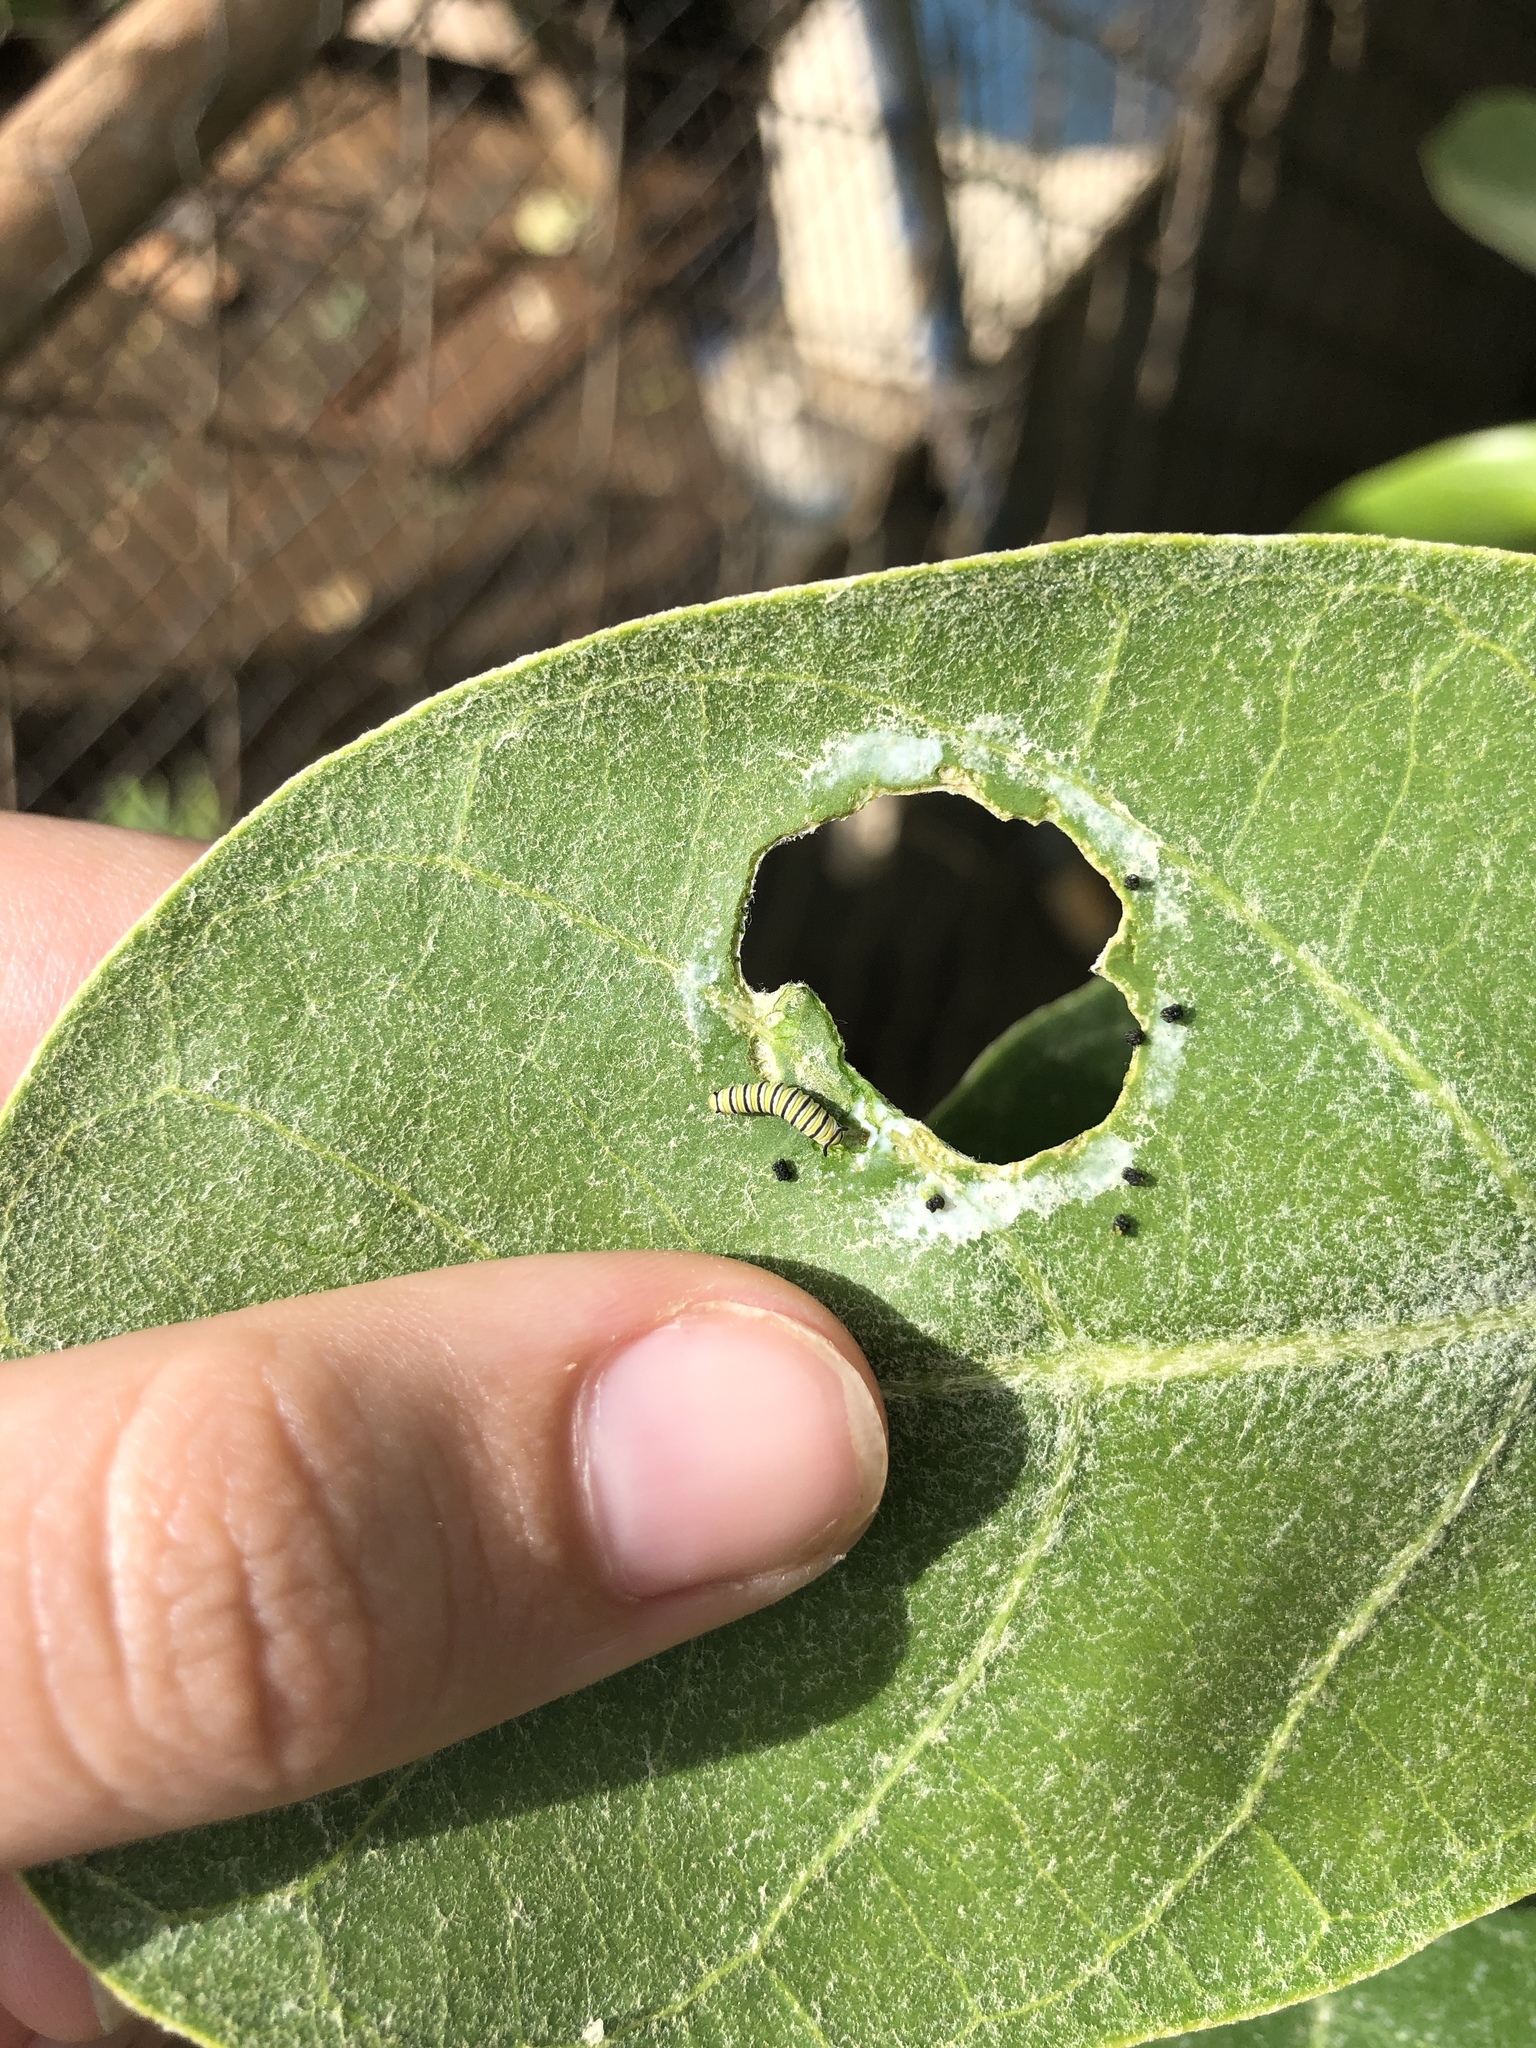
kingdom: Animalia
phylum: Arthropoda
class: Insecta
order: Lepidoptera
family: Nymphalidae
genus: Danaus
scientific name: Danaus plexippus
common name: Monarch
